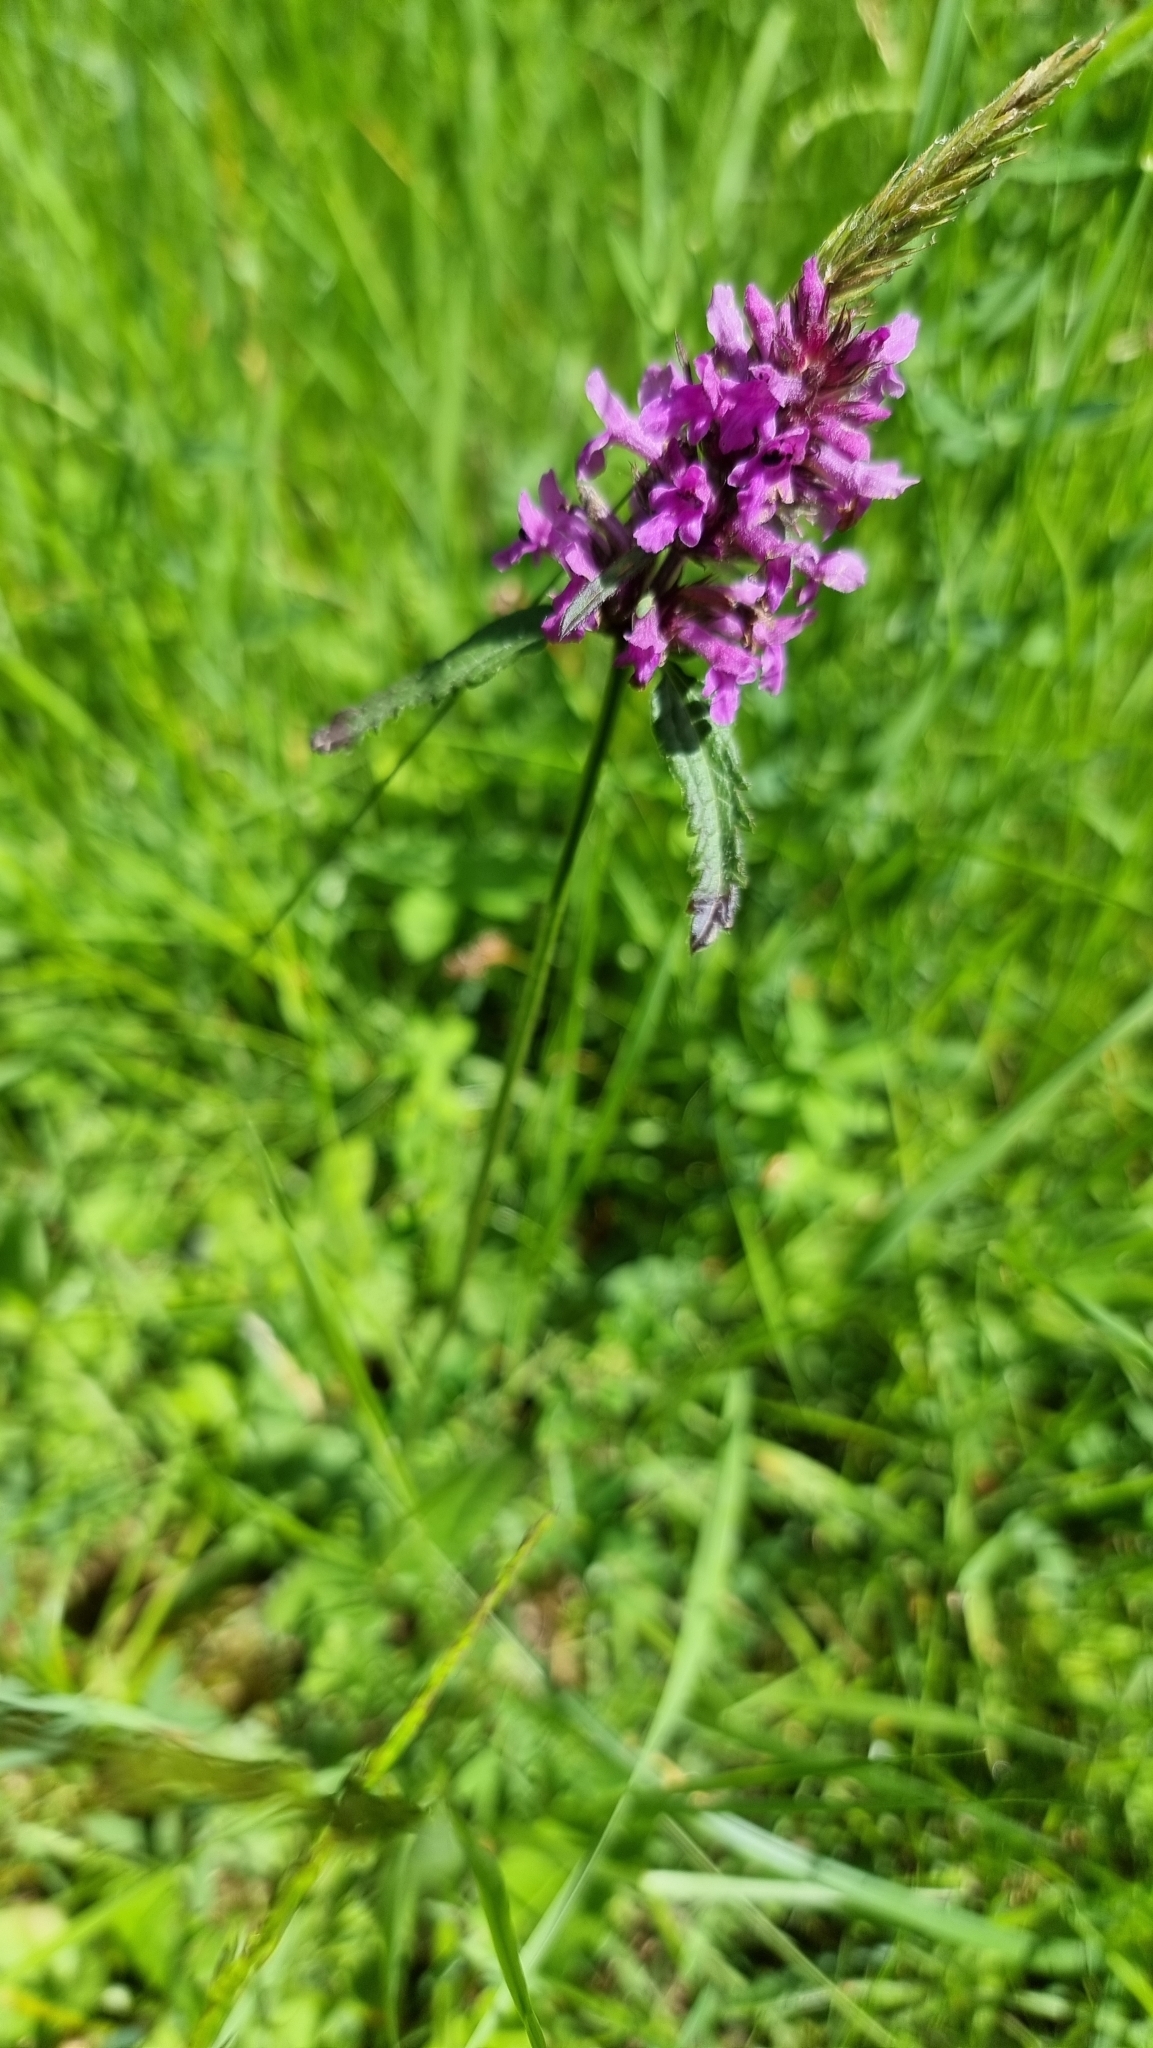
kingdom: Plantae
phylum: Tracheophyta
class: Magnoliopsida
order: Lamiales
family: Lamiaceae
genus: Betonica
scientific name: Betonica officinalis
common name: Bishop's-wort
